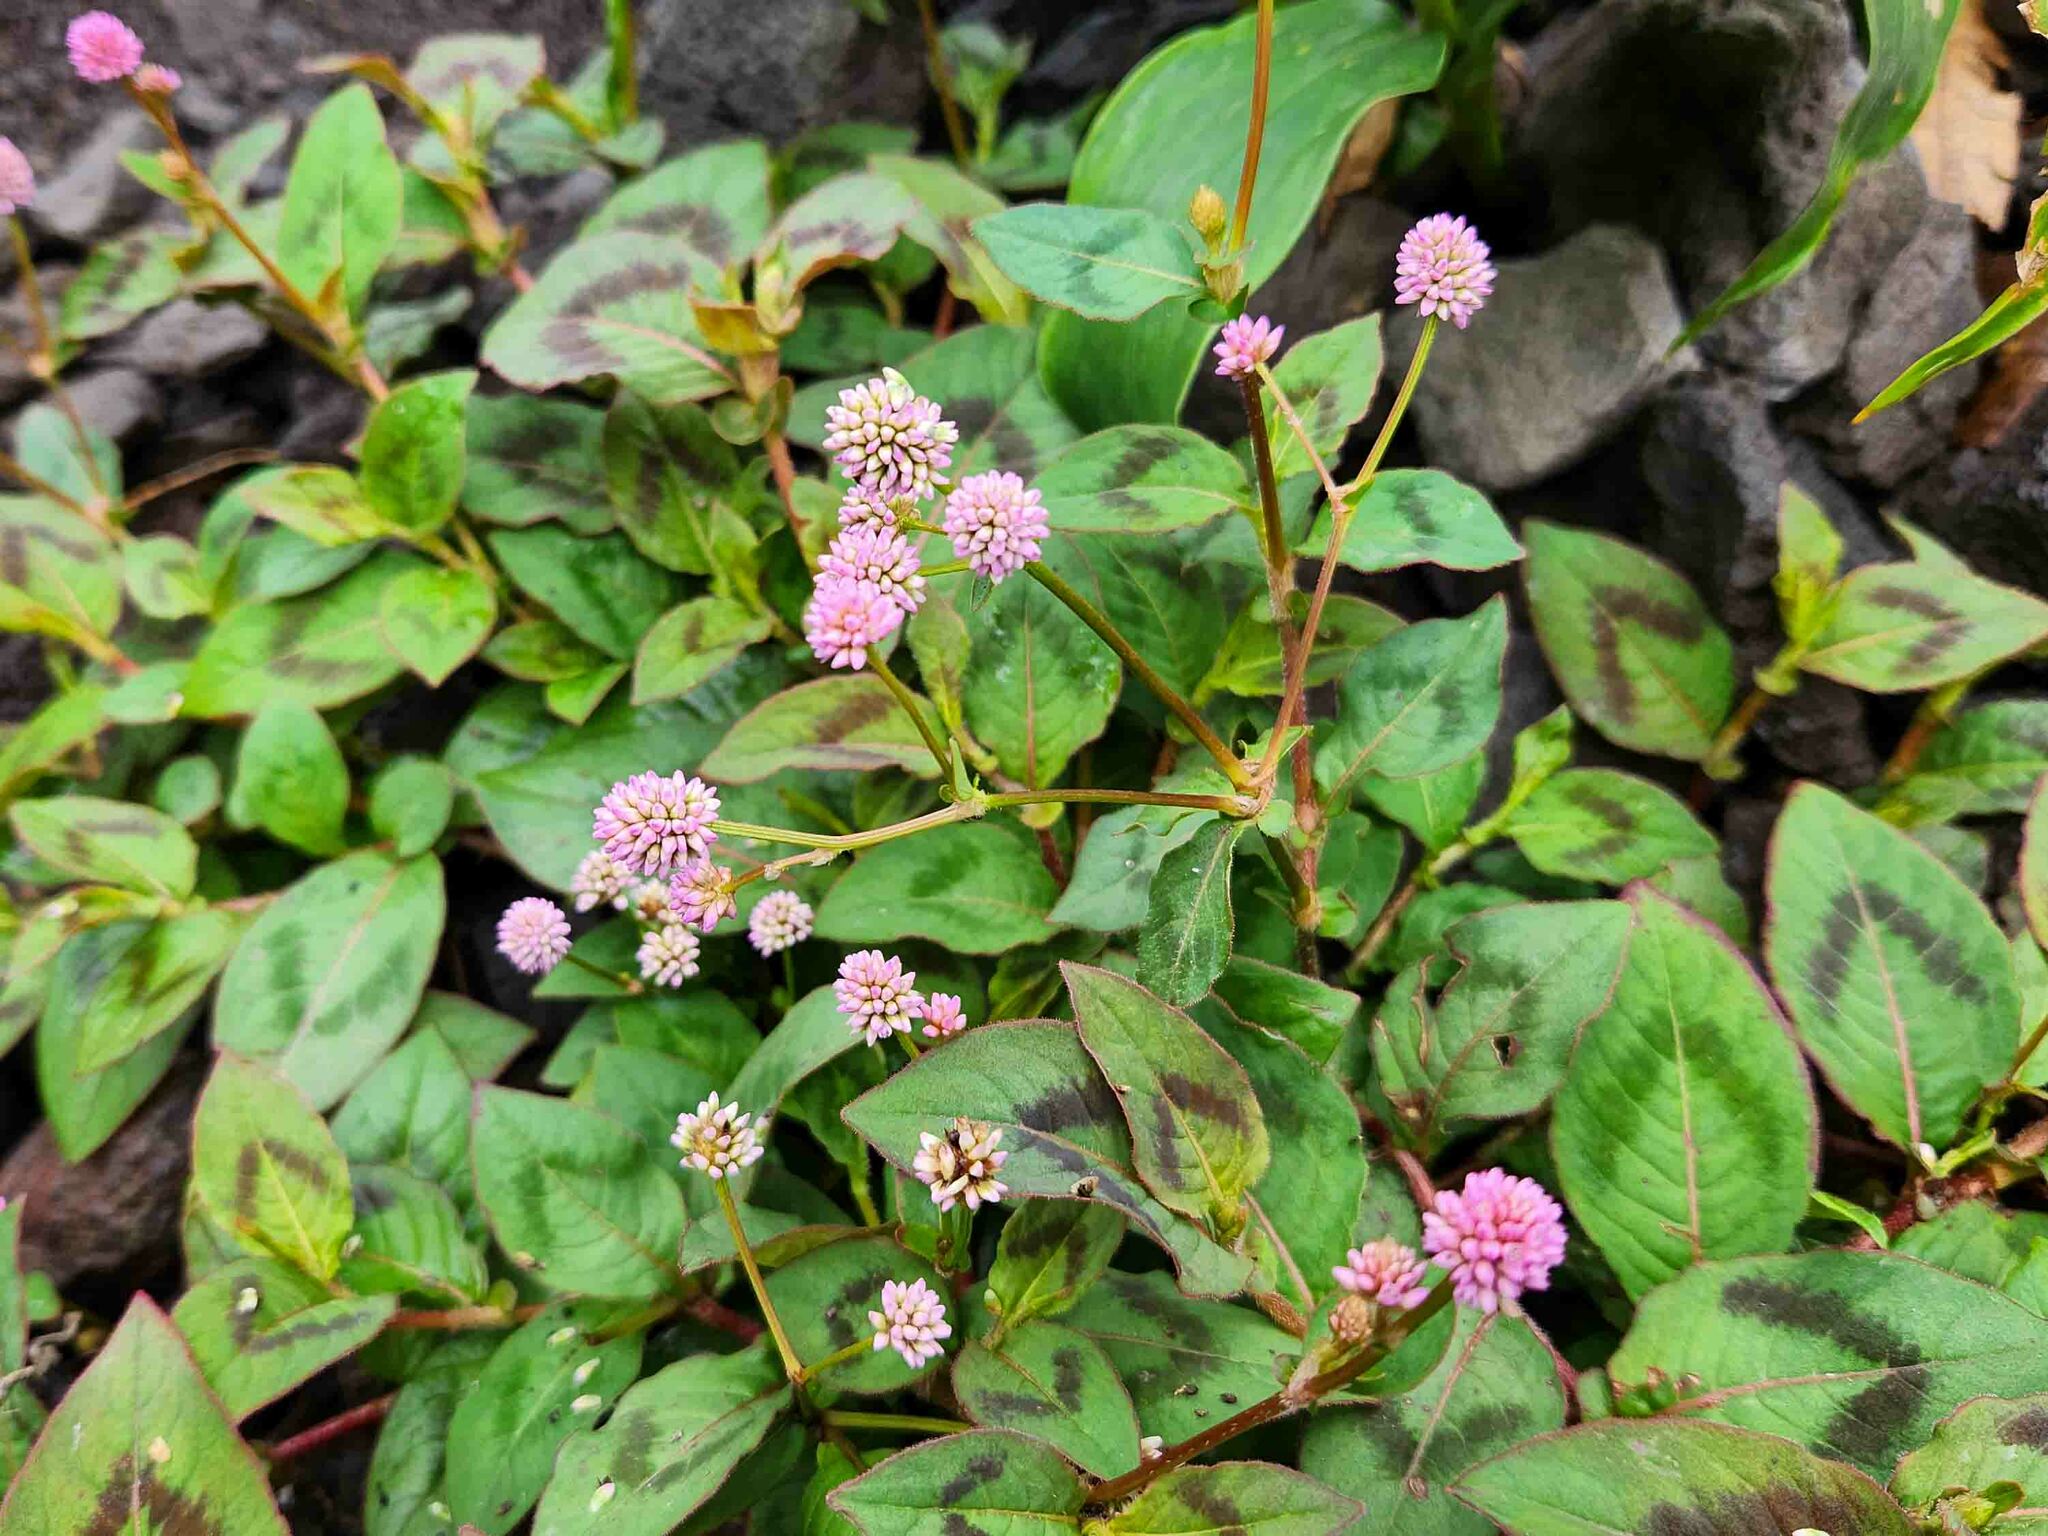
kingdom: Plantae
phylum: Tracheophyta
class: Magnoliopsida
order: Caryophyllales
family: Polygonaceae
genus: Persicaria
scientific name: Persicaria capitata
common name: Pinkhead smartweed
